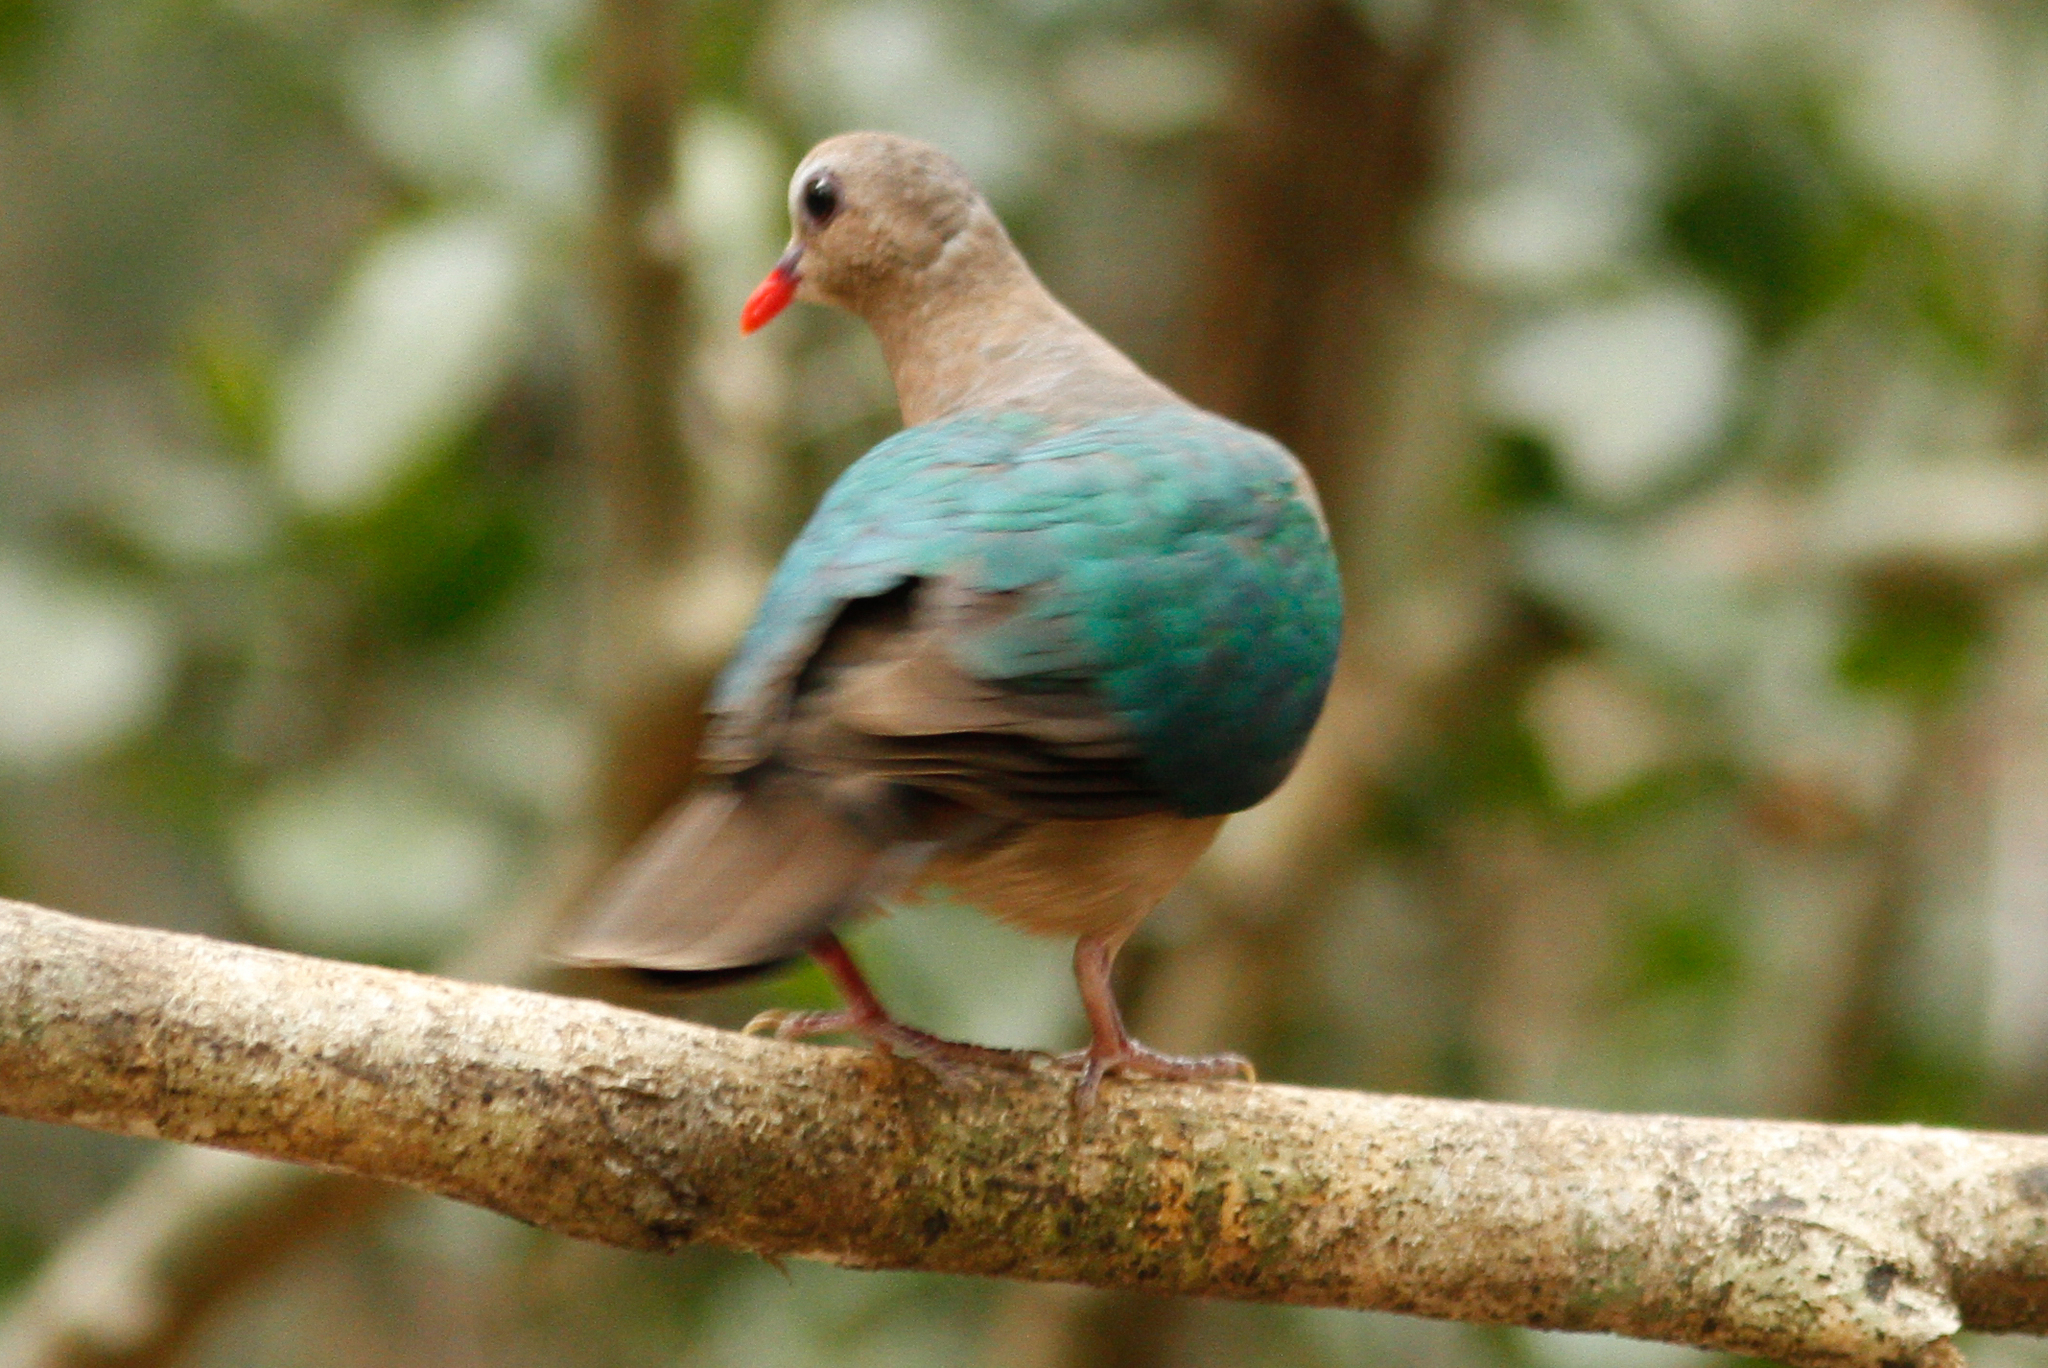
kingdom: Animalia
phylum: Chordata
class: Aves
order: Columbiformes
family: Columbidae
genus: Chalcophaps
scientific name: Chalcophaps indica
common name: Common emerald dove
